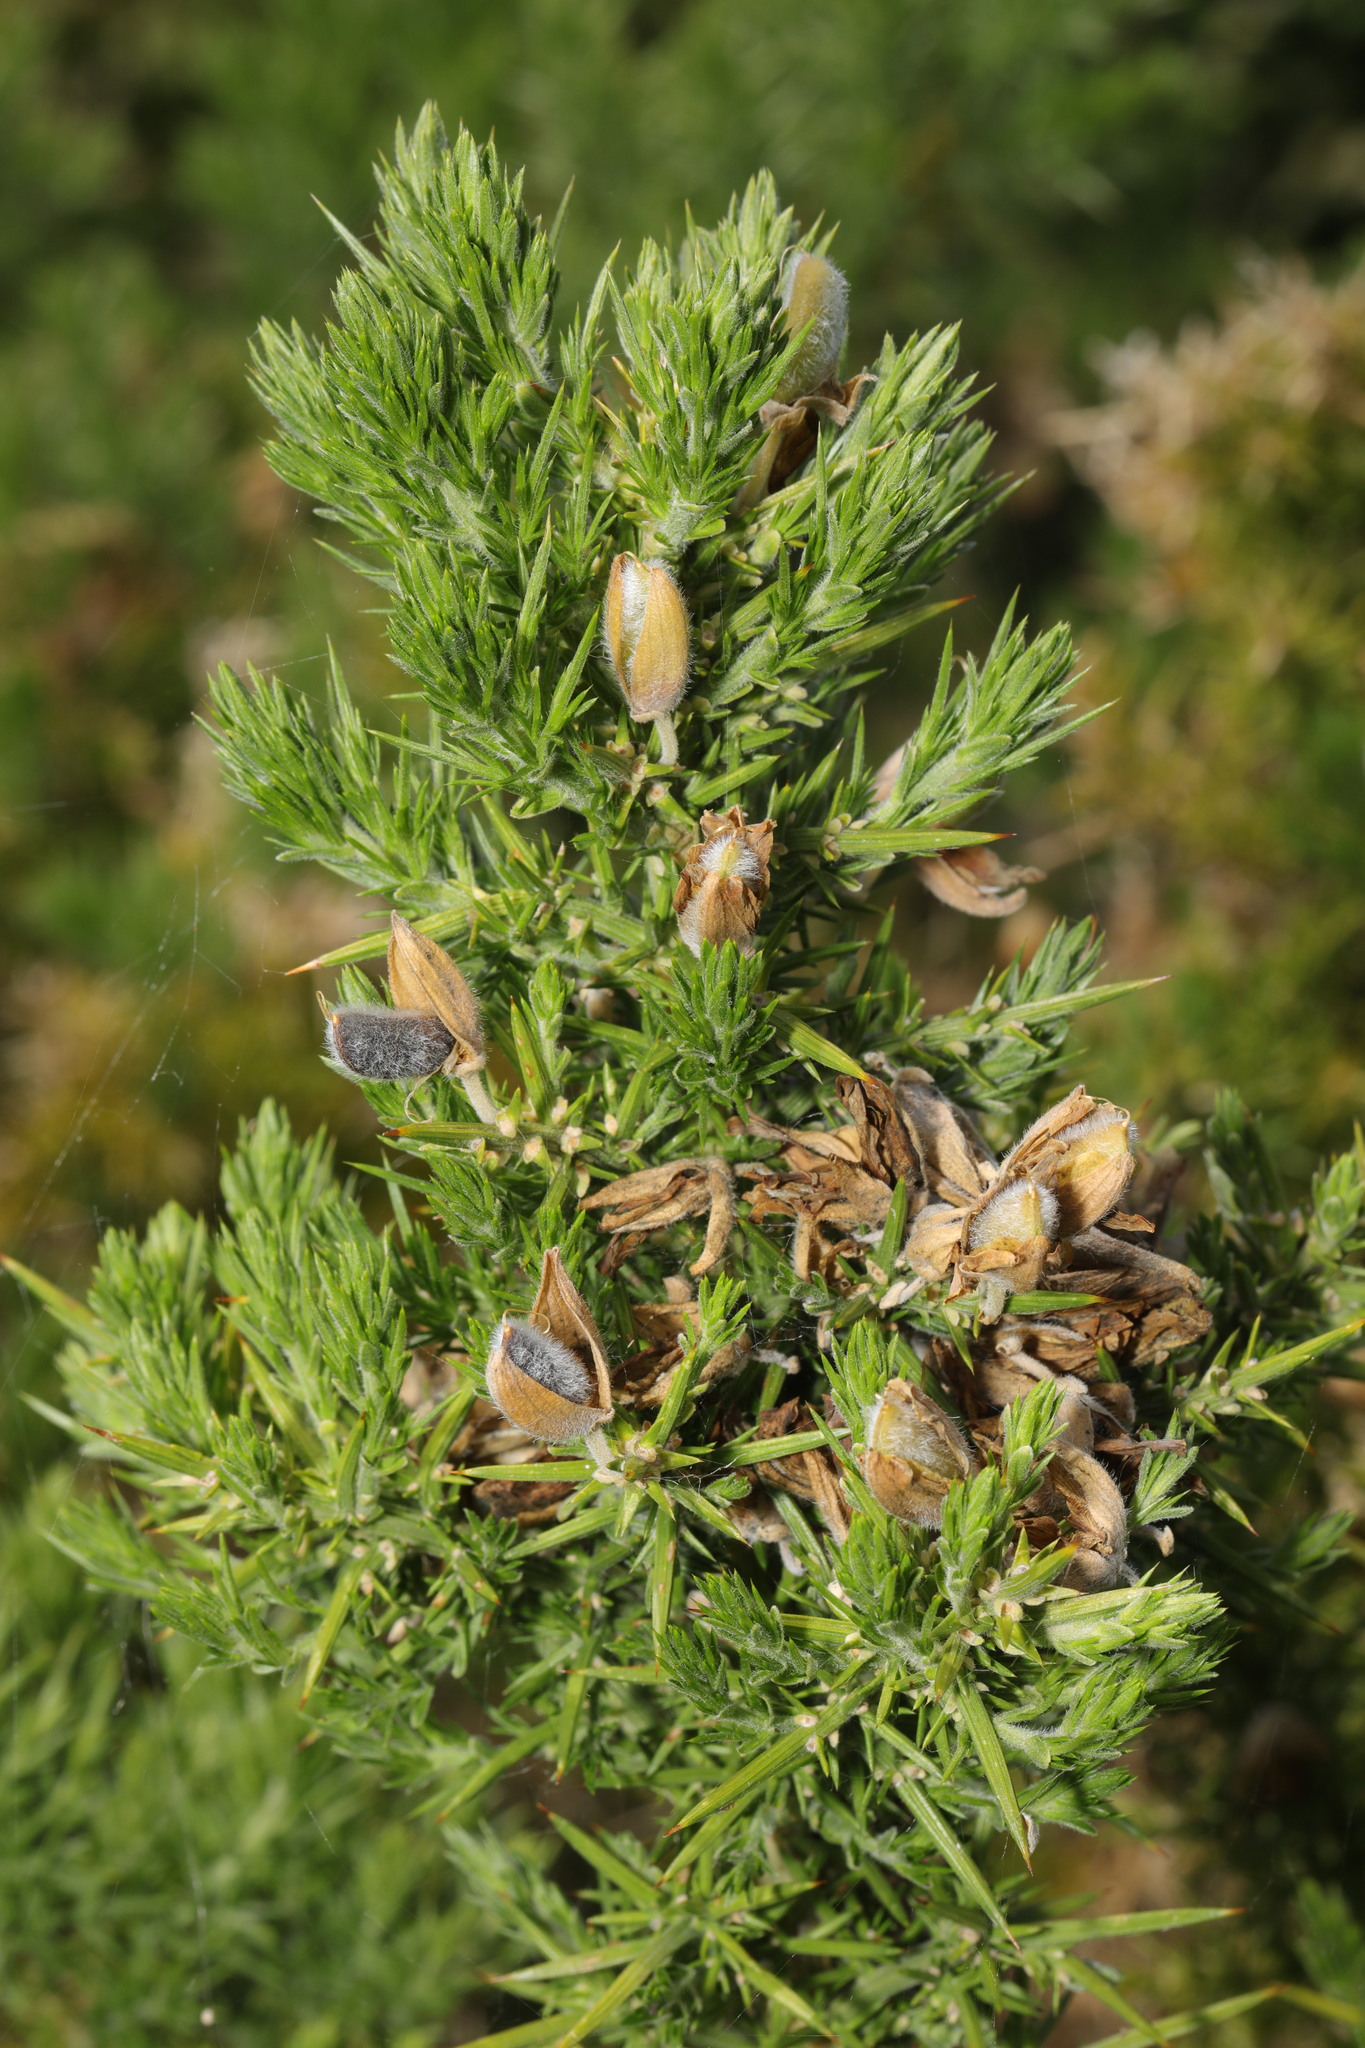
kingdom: Plantae
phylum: Tracheophyta
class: Magnoliopsida
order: Fabales
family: Fabaceae
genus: Ulex
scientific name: Ulex europaeus
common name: Common gorse
